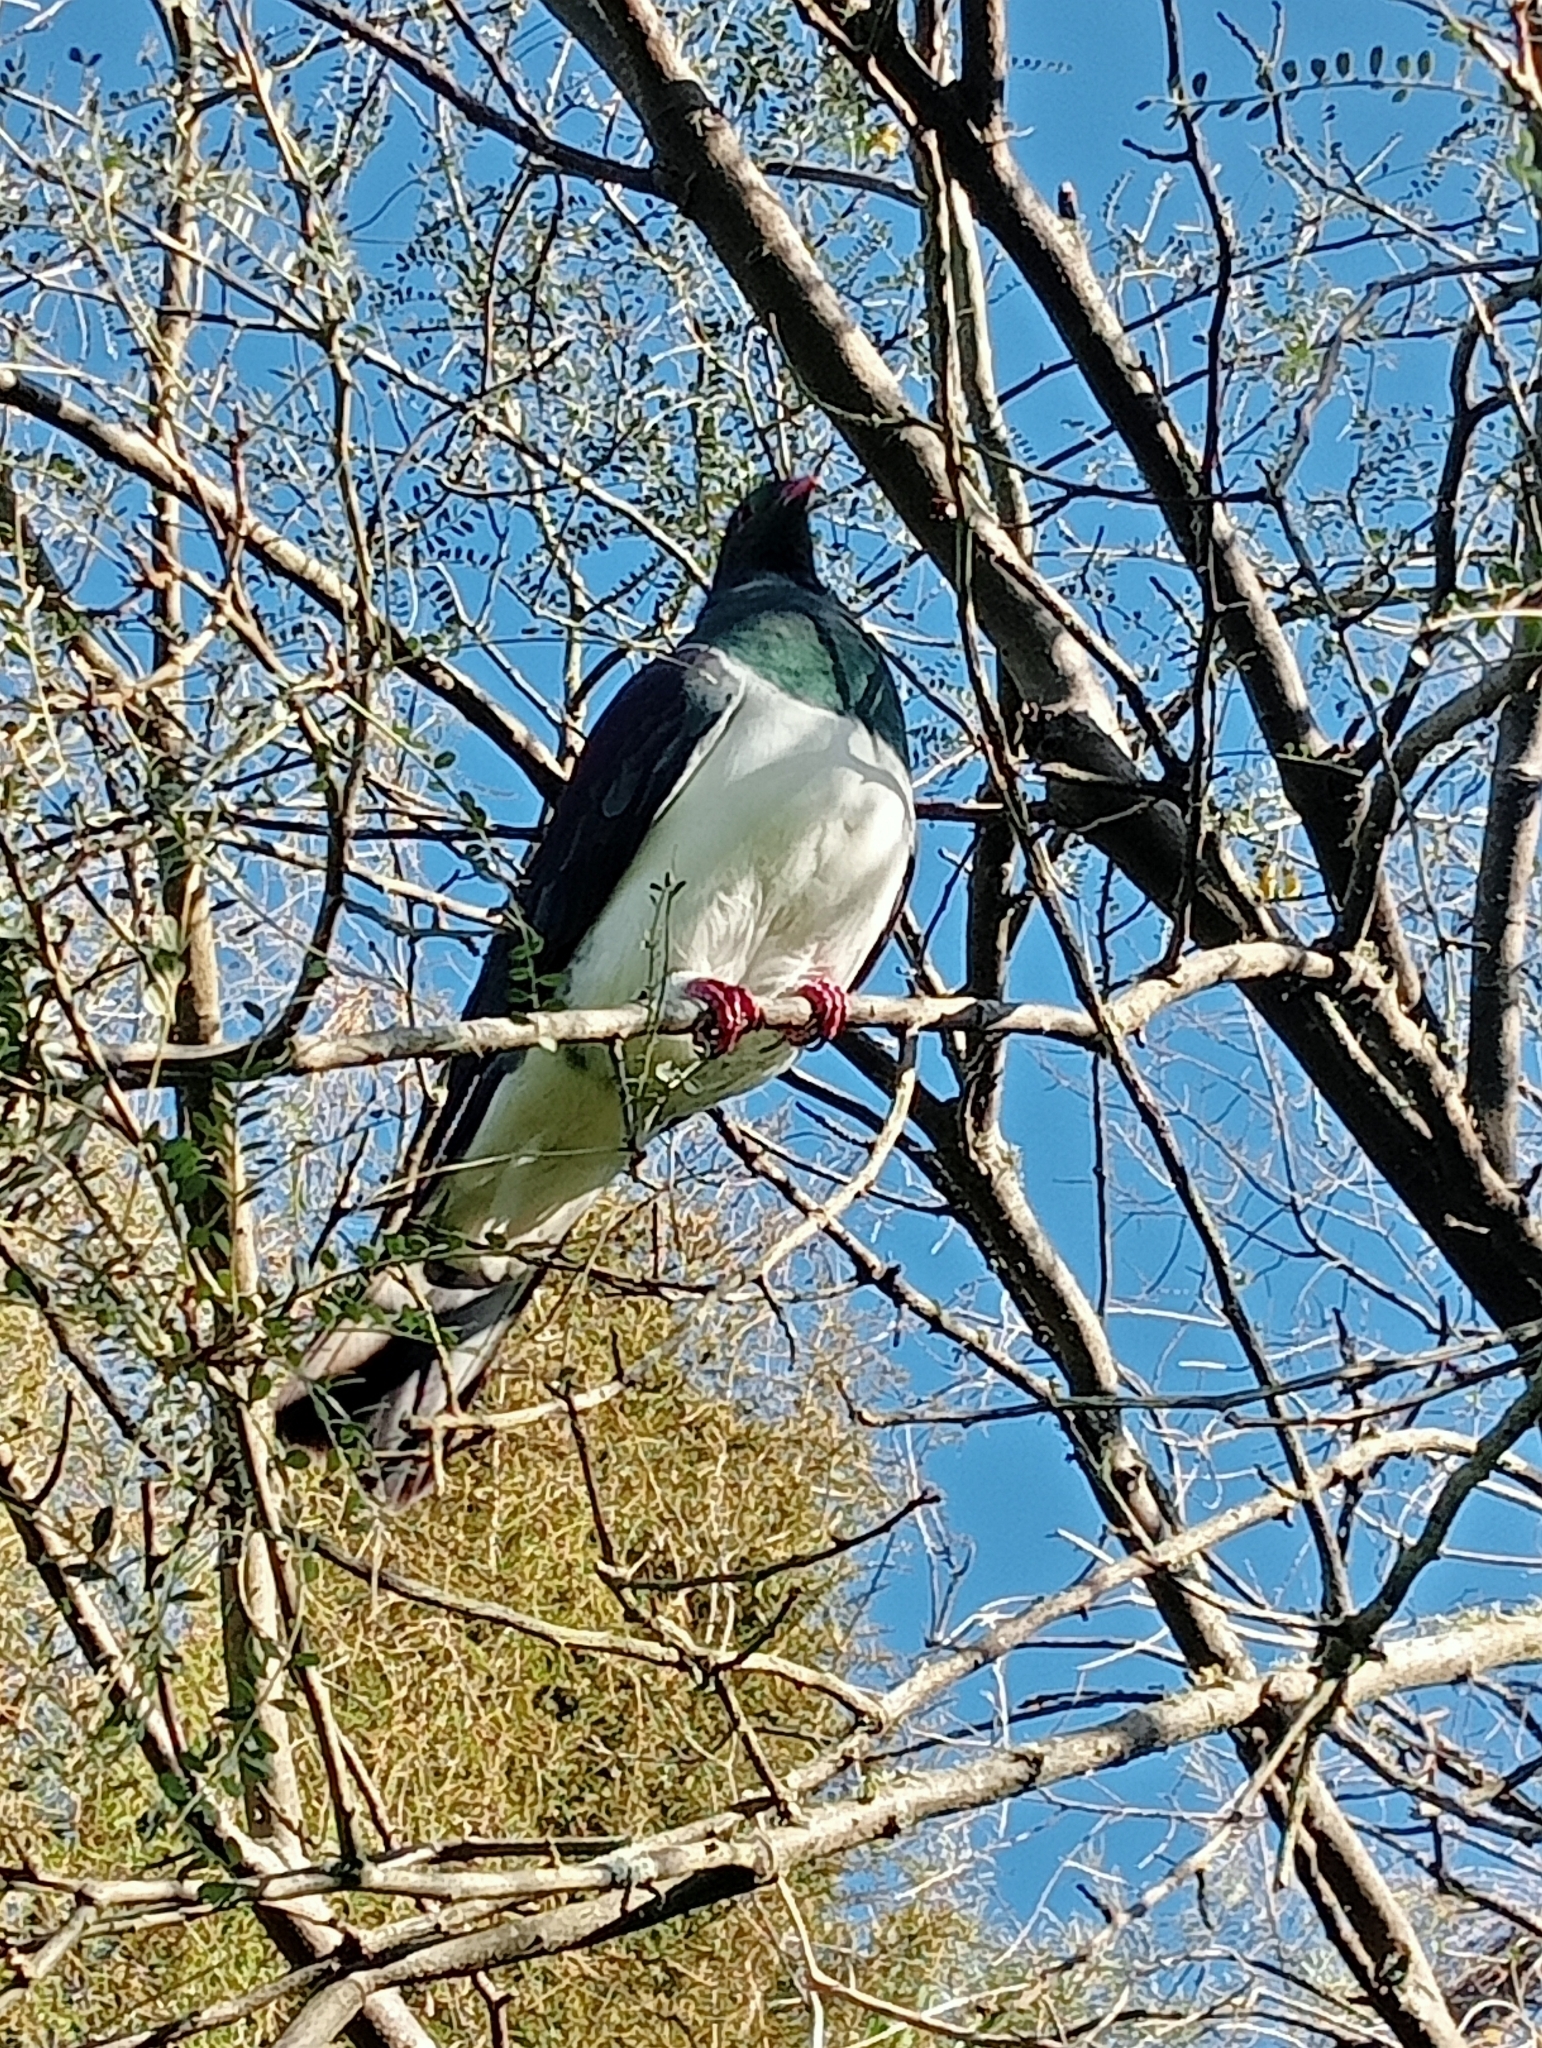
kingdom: Animalia
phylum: Chordata
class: Aves
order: Columbiformes
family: Columbidae
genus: Hemiphaga
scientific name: Hemiphaga novaeseelandiae
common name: New zealand pigeon
